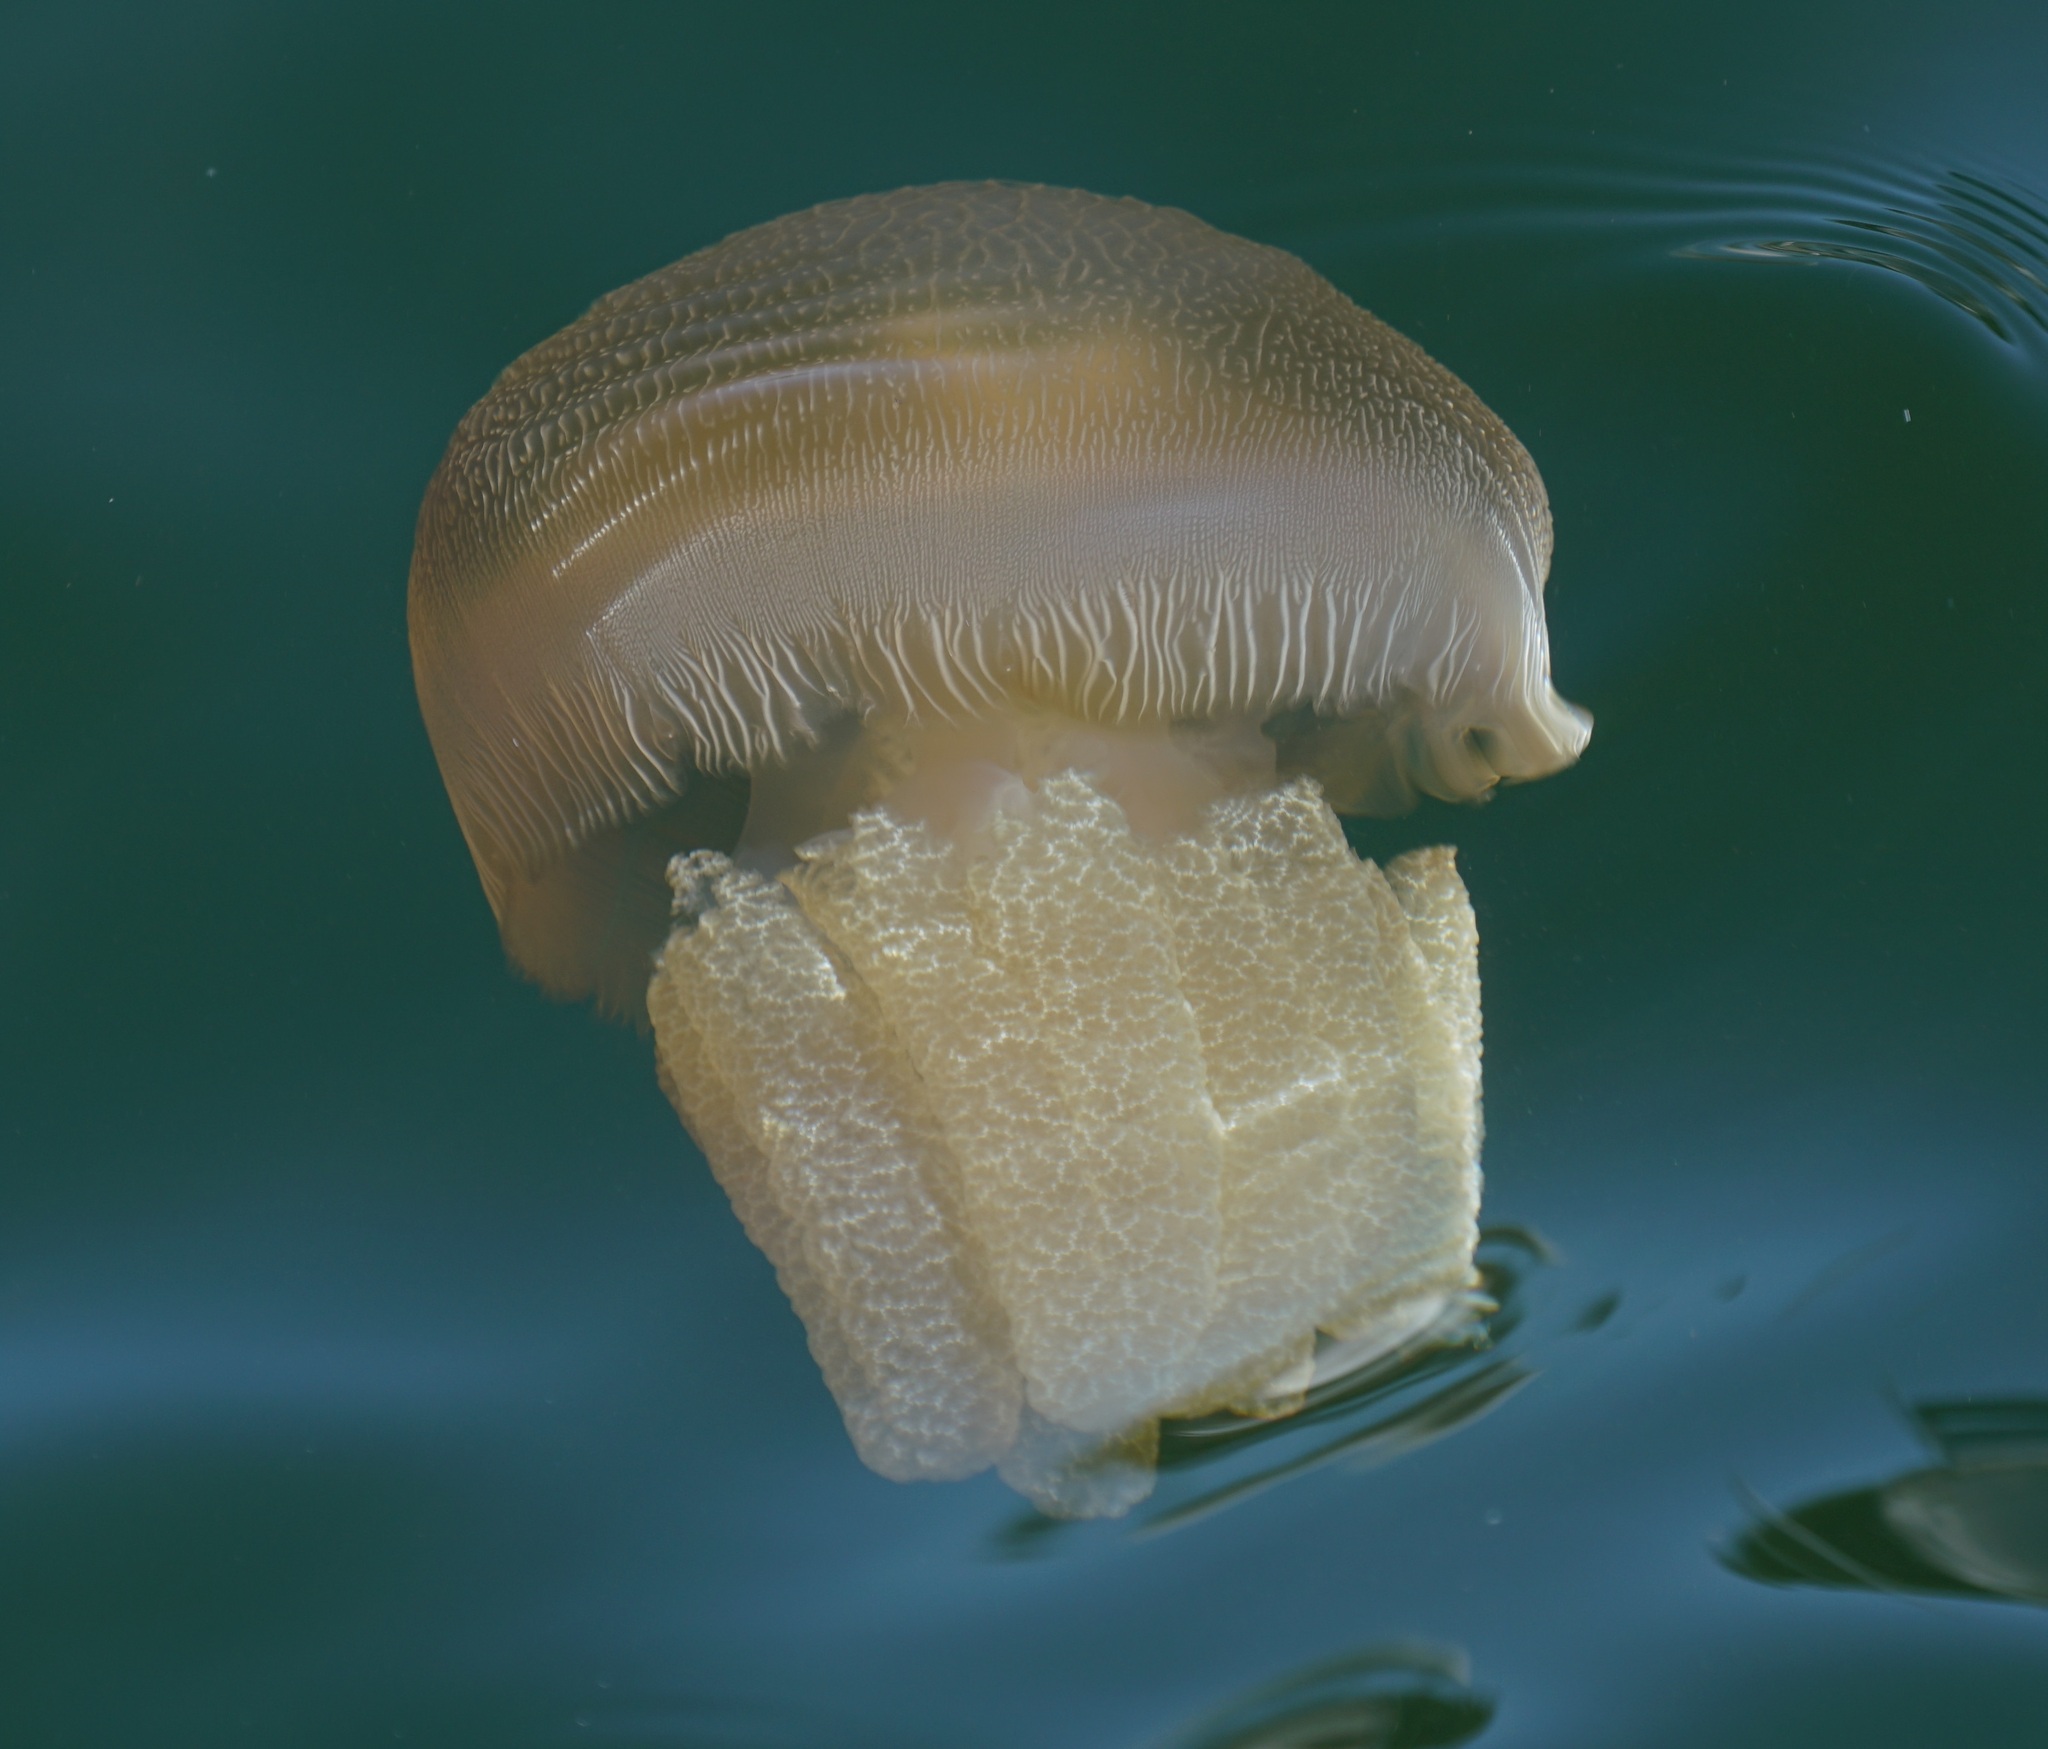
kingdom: Animalia
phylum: Cnidaria
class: Scyphozoa
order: Rhizostomeae
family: Catostylidae
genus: Catostylus
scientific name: Catostylus mosaicus
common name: Blue blubber
